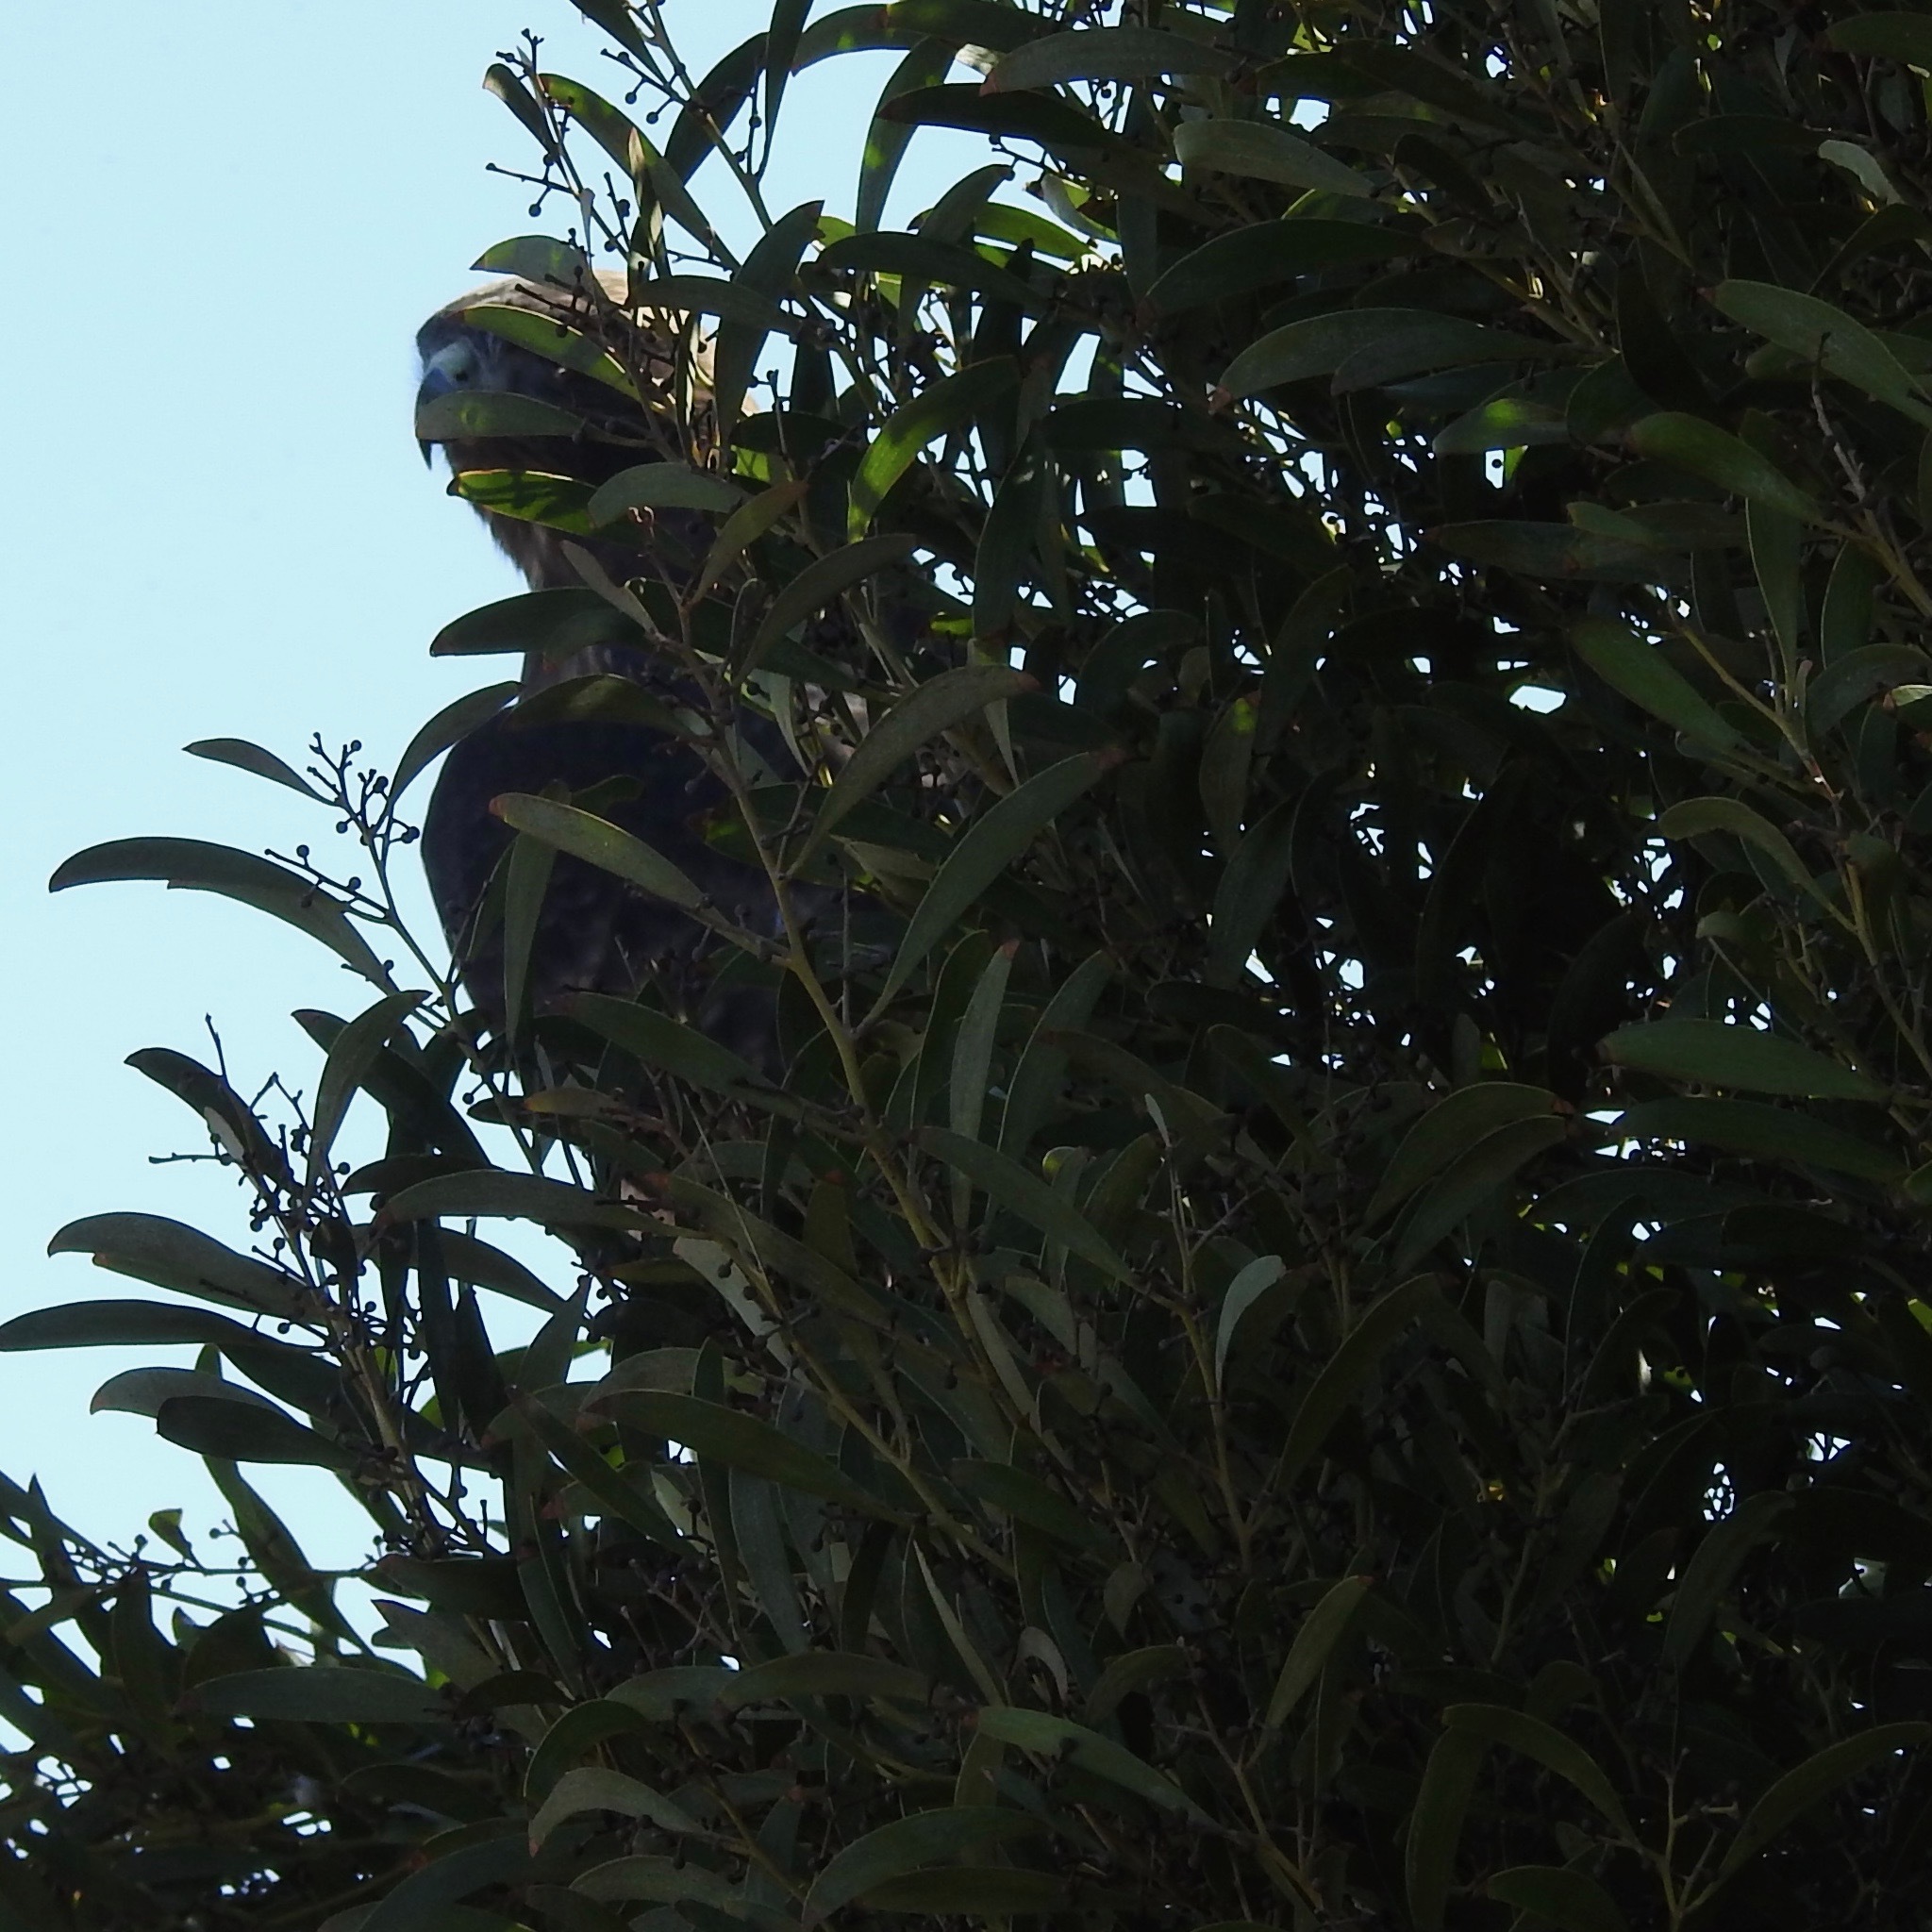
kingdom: Animalia
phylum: Chordata
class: Aves
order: Accipitriformes
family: Accipitridae
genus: Buteo
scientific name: Buteo jamaicensis
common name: Red-tailed hawk
